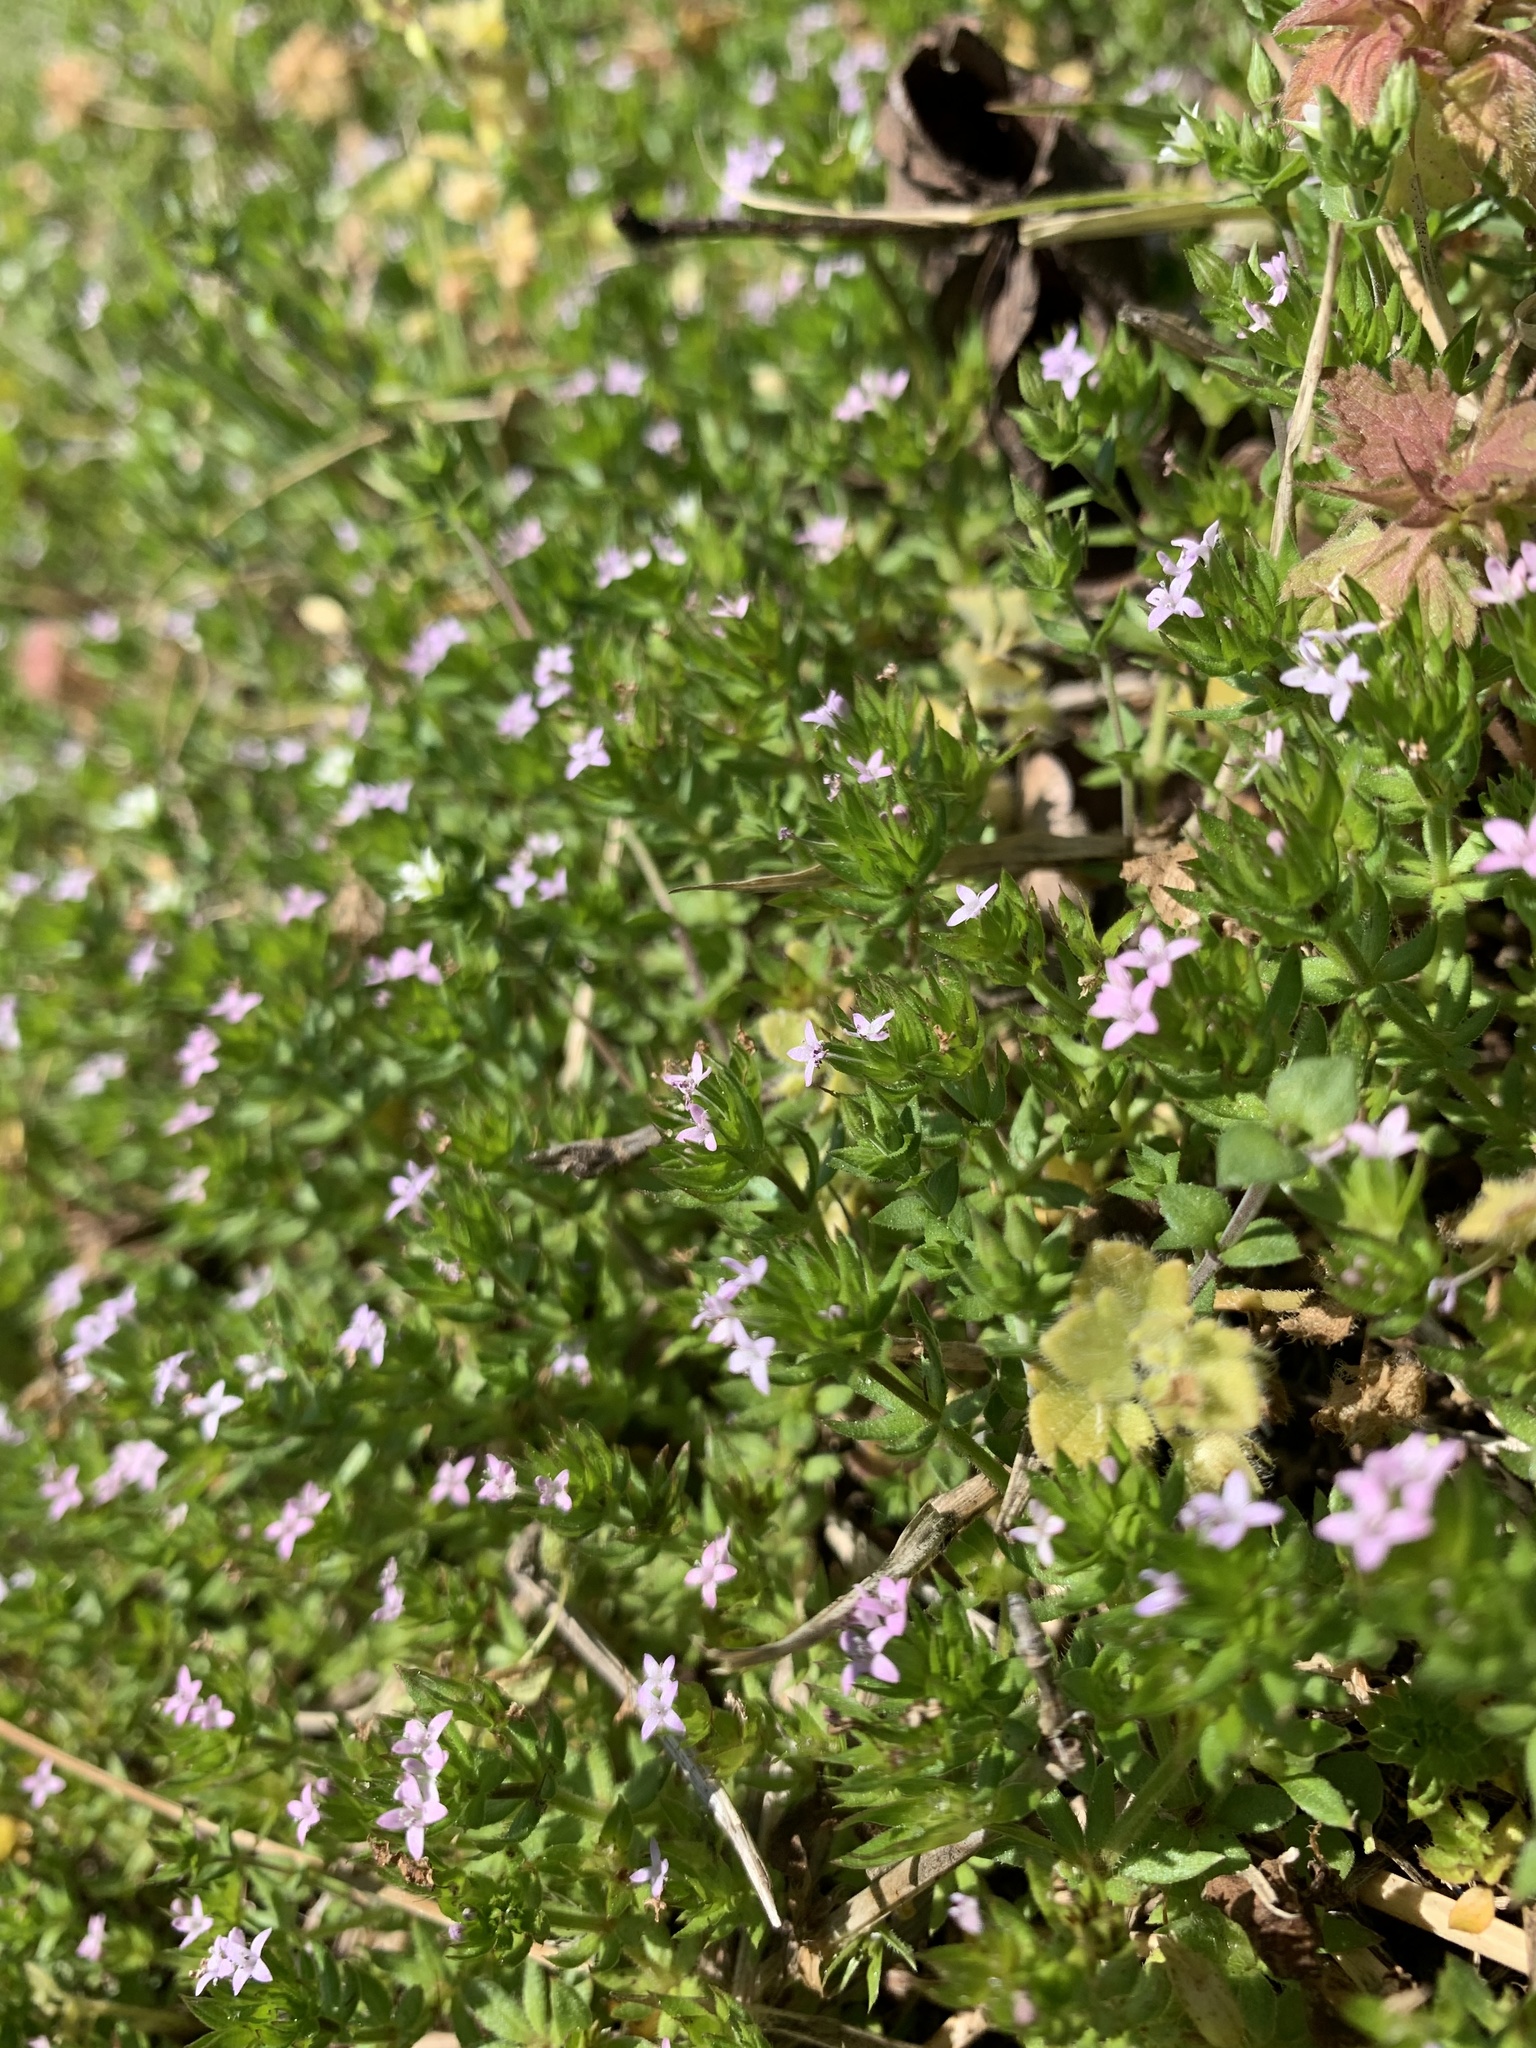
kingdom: Plantae
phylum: Tracheophyta
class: Magnoliopsida
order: Gentianales
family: Rubiaceae
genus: Sherardia
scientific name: Sherardia arvensis
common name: Field madder
